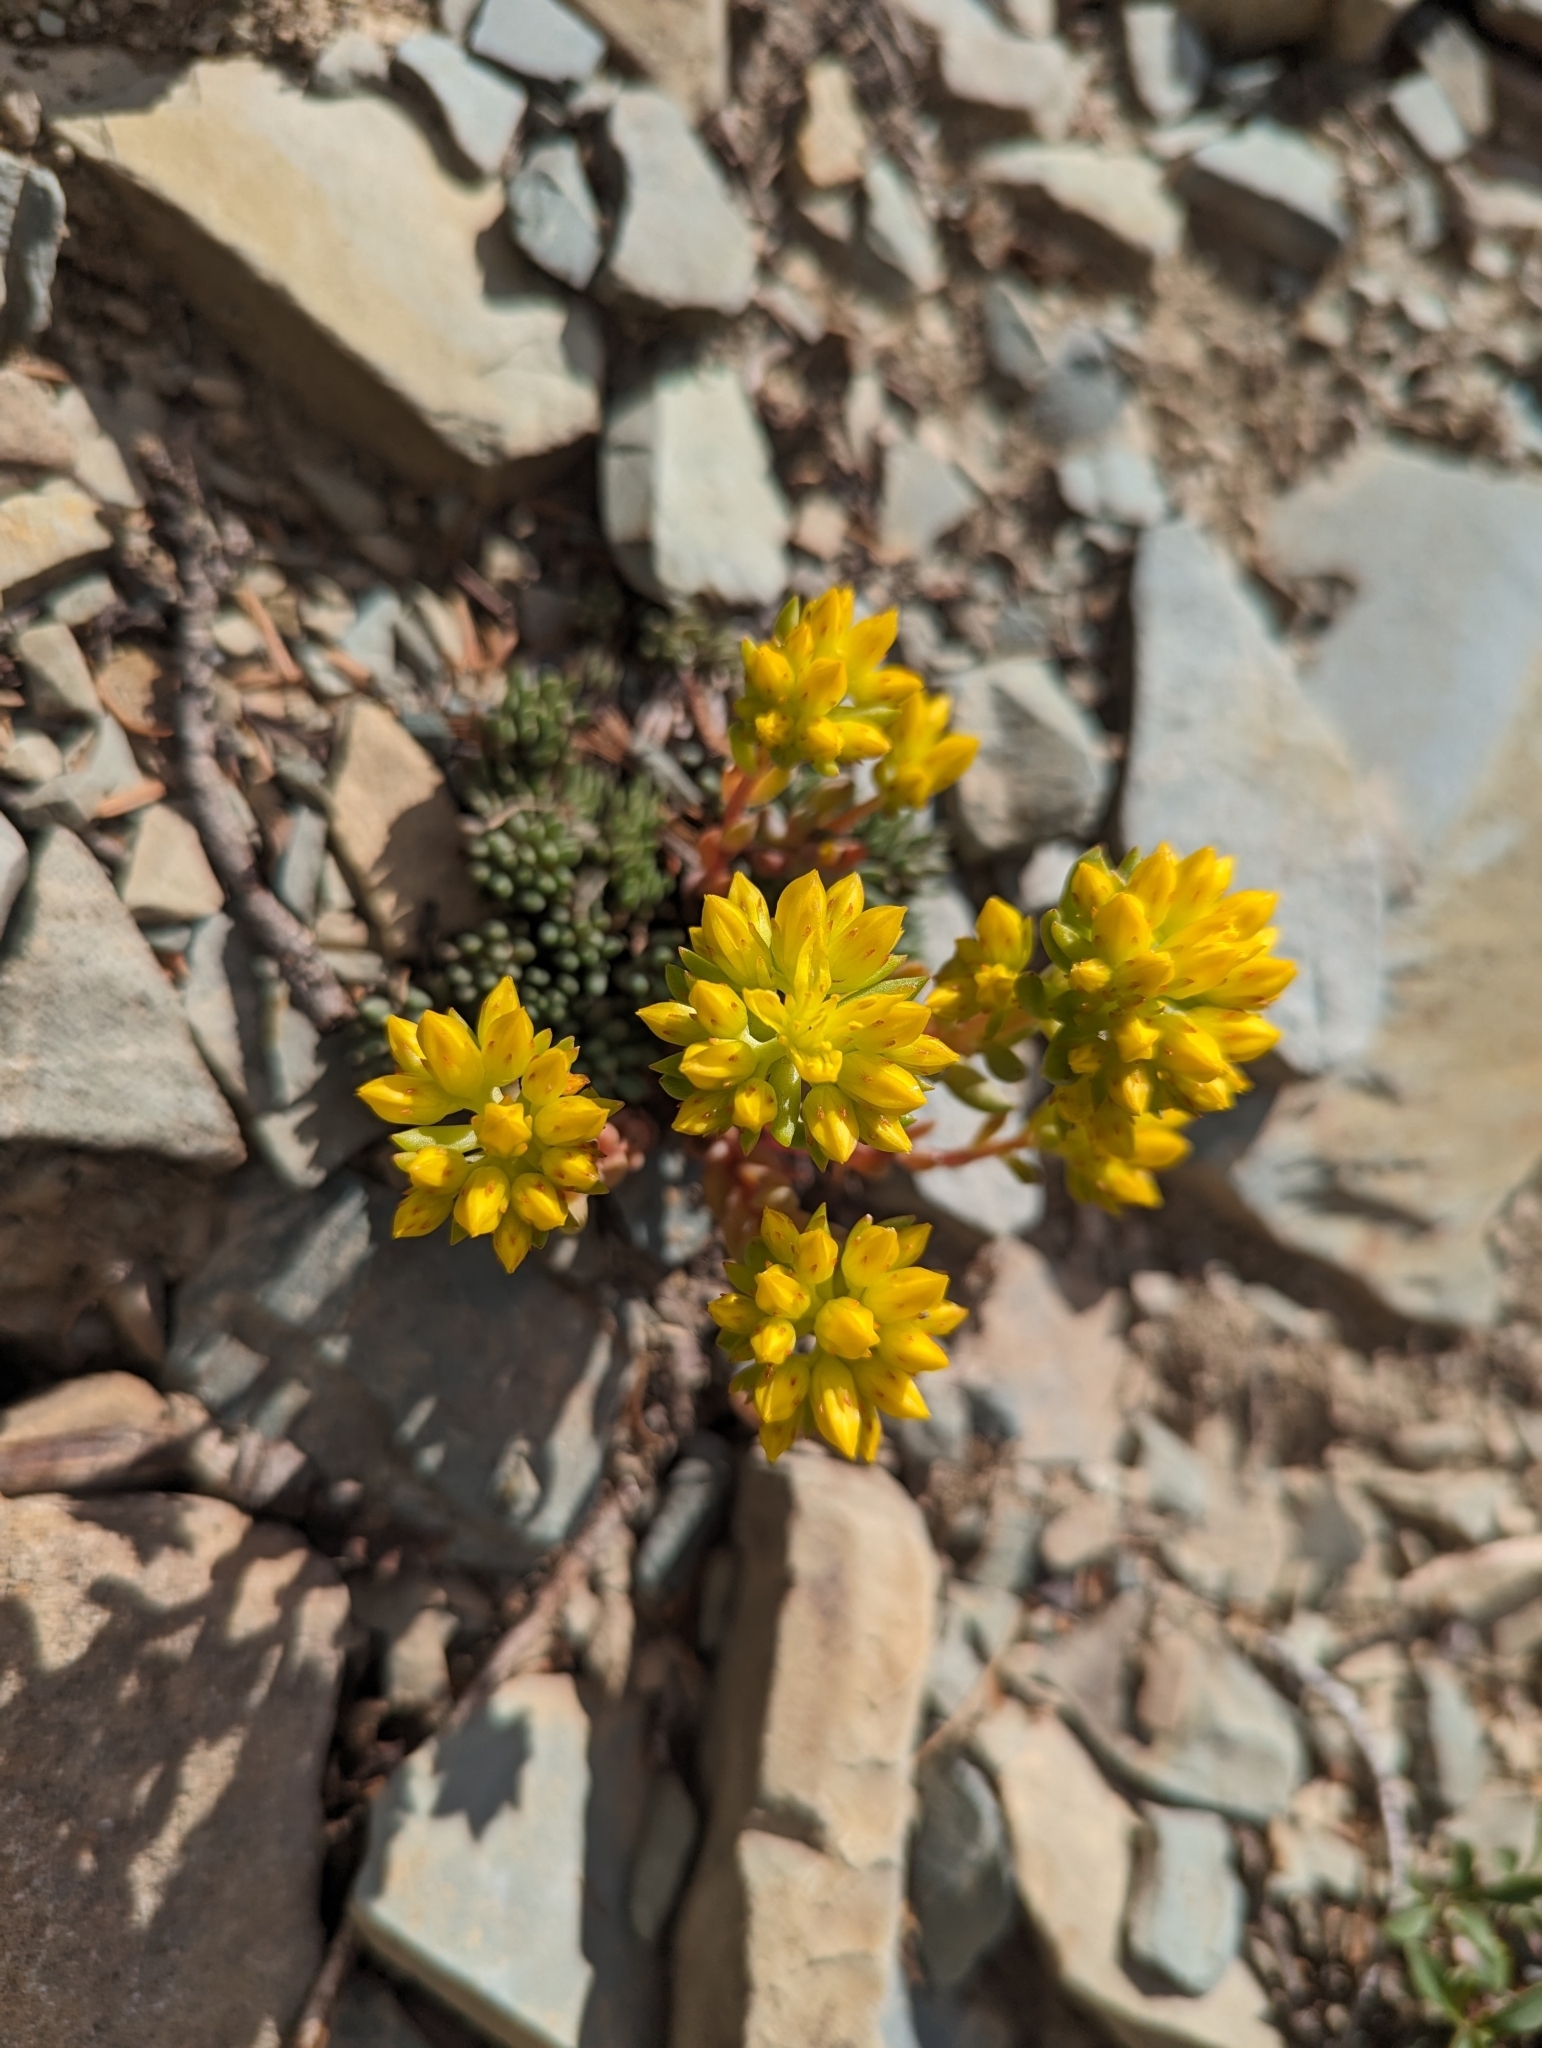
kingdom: Plantae
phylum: Tracheophyta
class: Magnoliopsida
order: Saxifragales
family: Crassulaceae
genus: Sedum
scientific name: Sedum lanceolatum
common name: Common stonecrop
